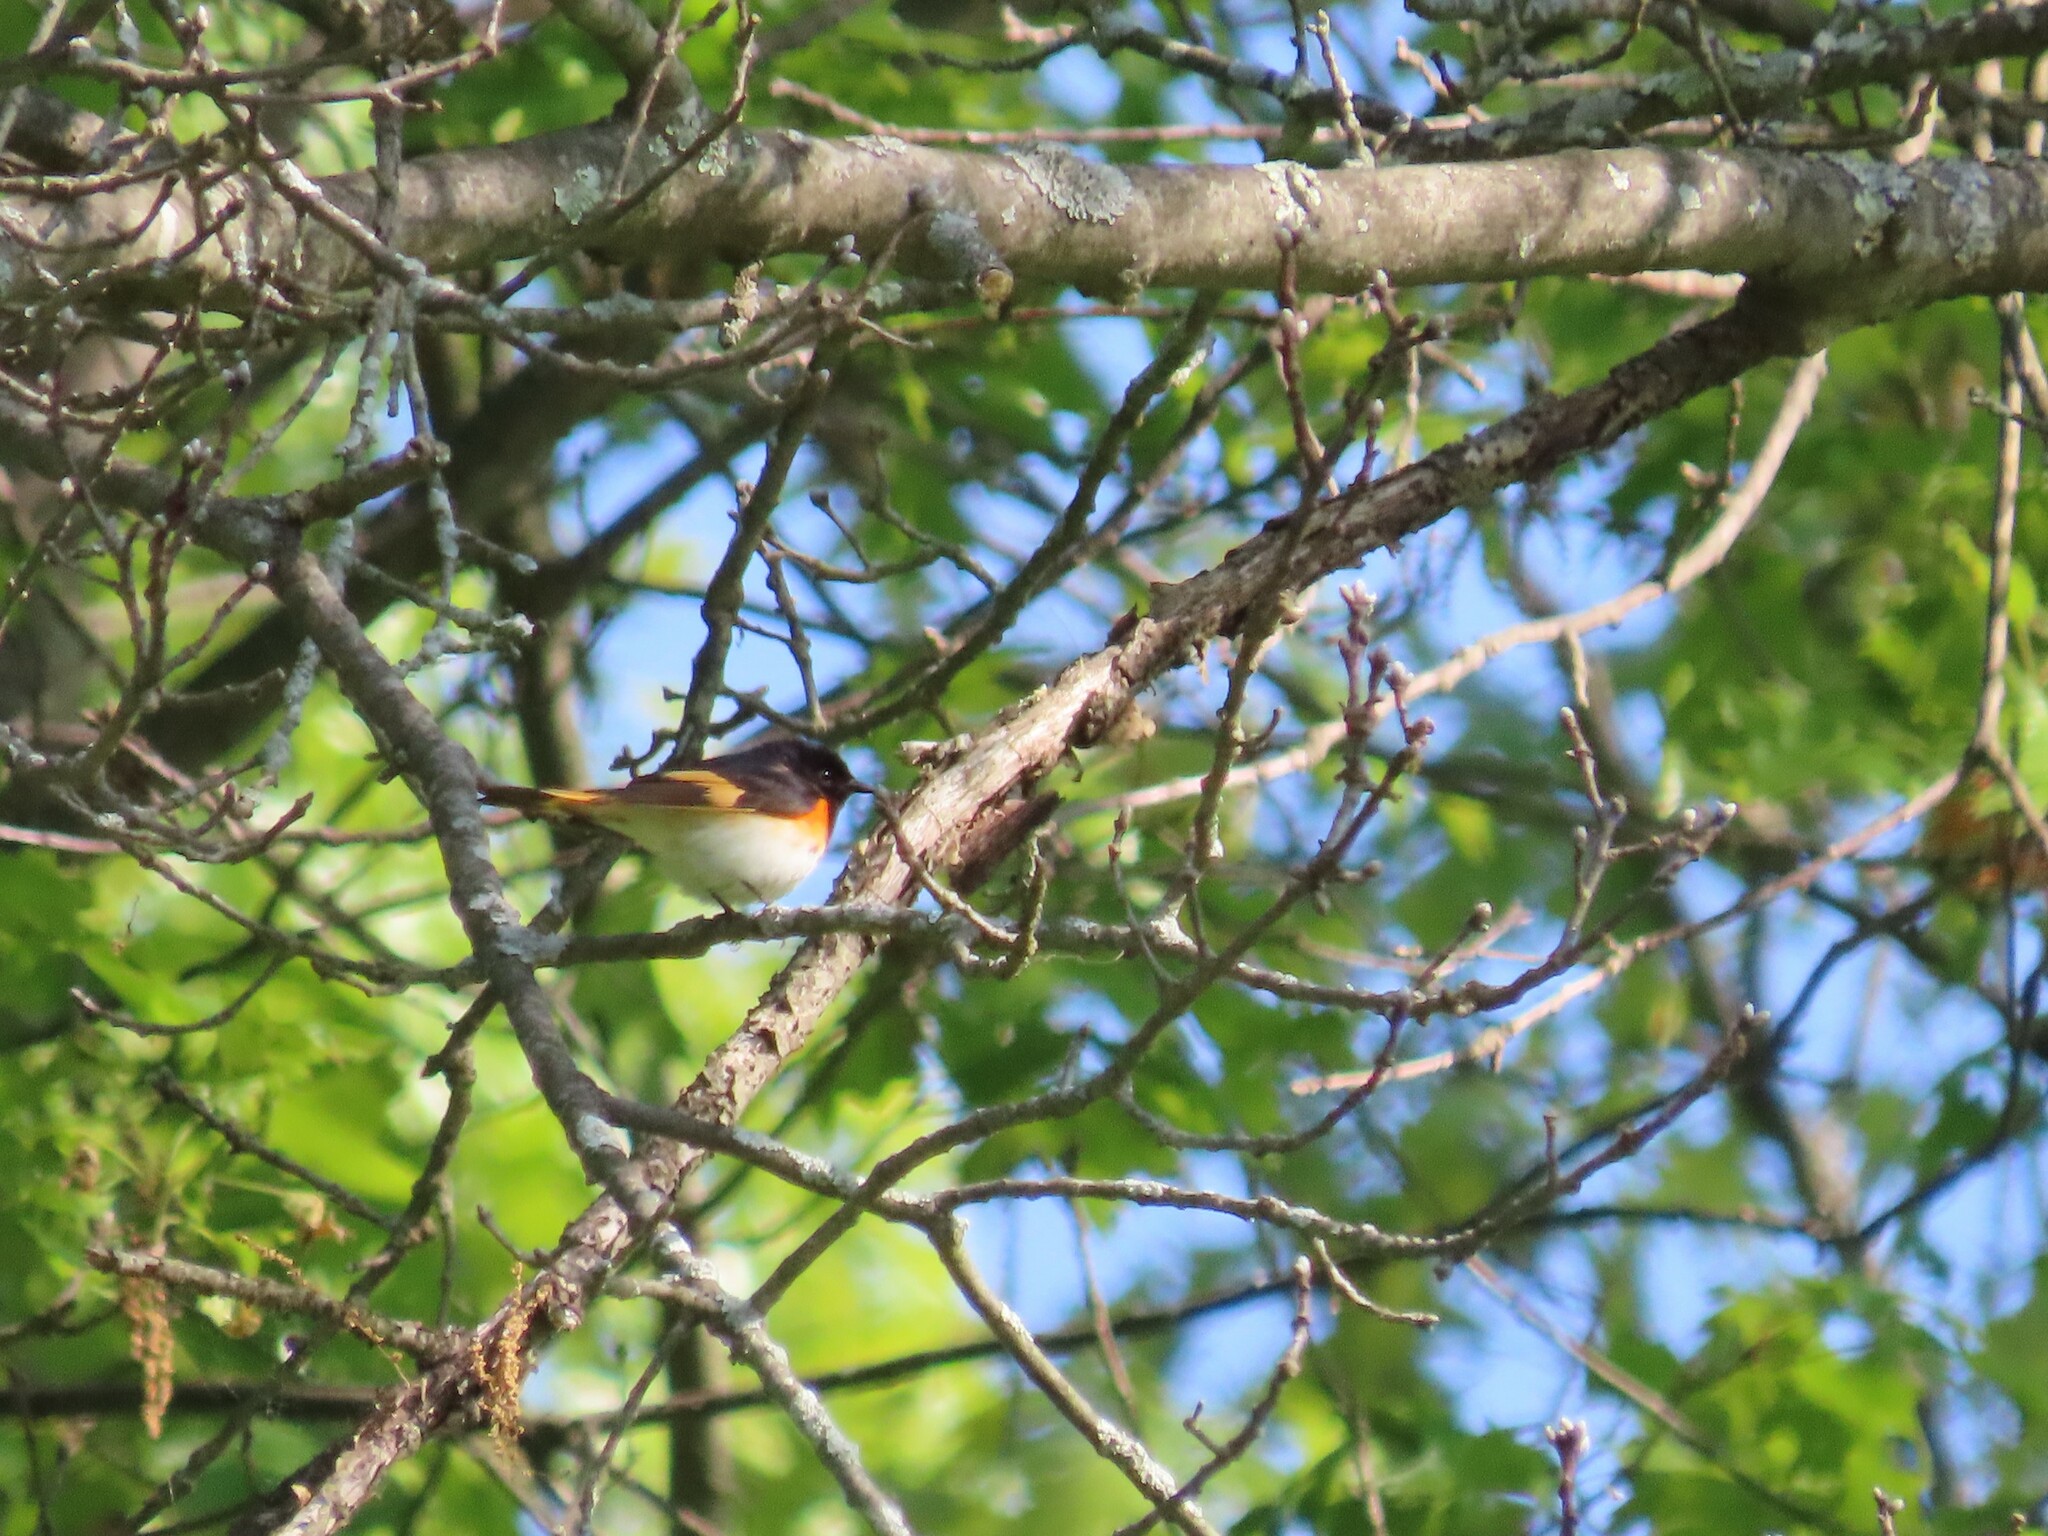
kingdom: Animalia
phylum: Chordata
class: Aves
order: Passeriformes
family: Parulidae
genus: Setophaga
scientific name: Setophaga ruticilla
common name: American redstart
